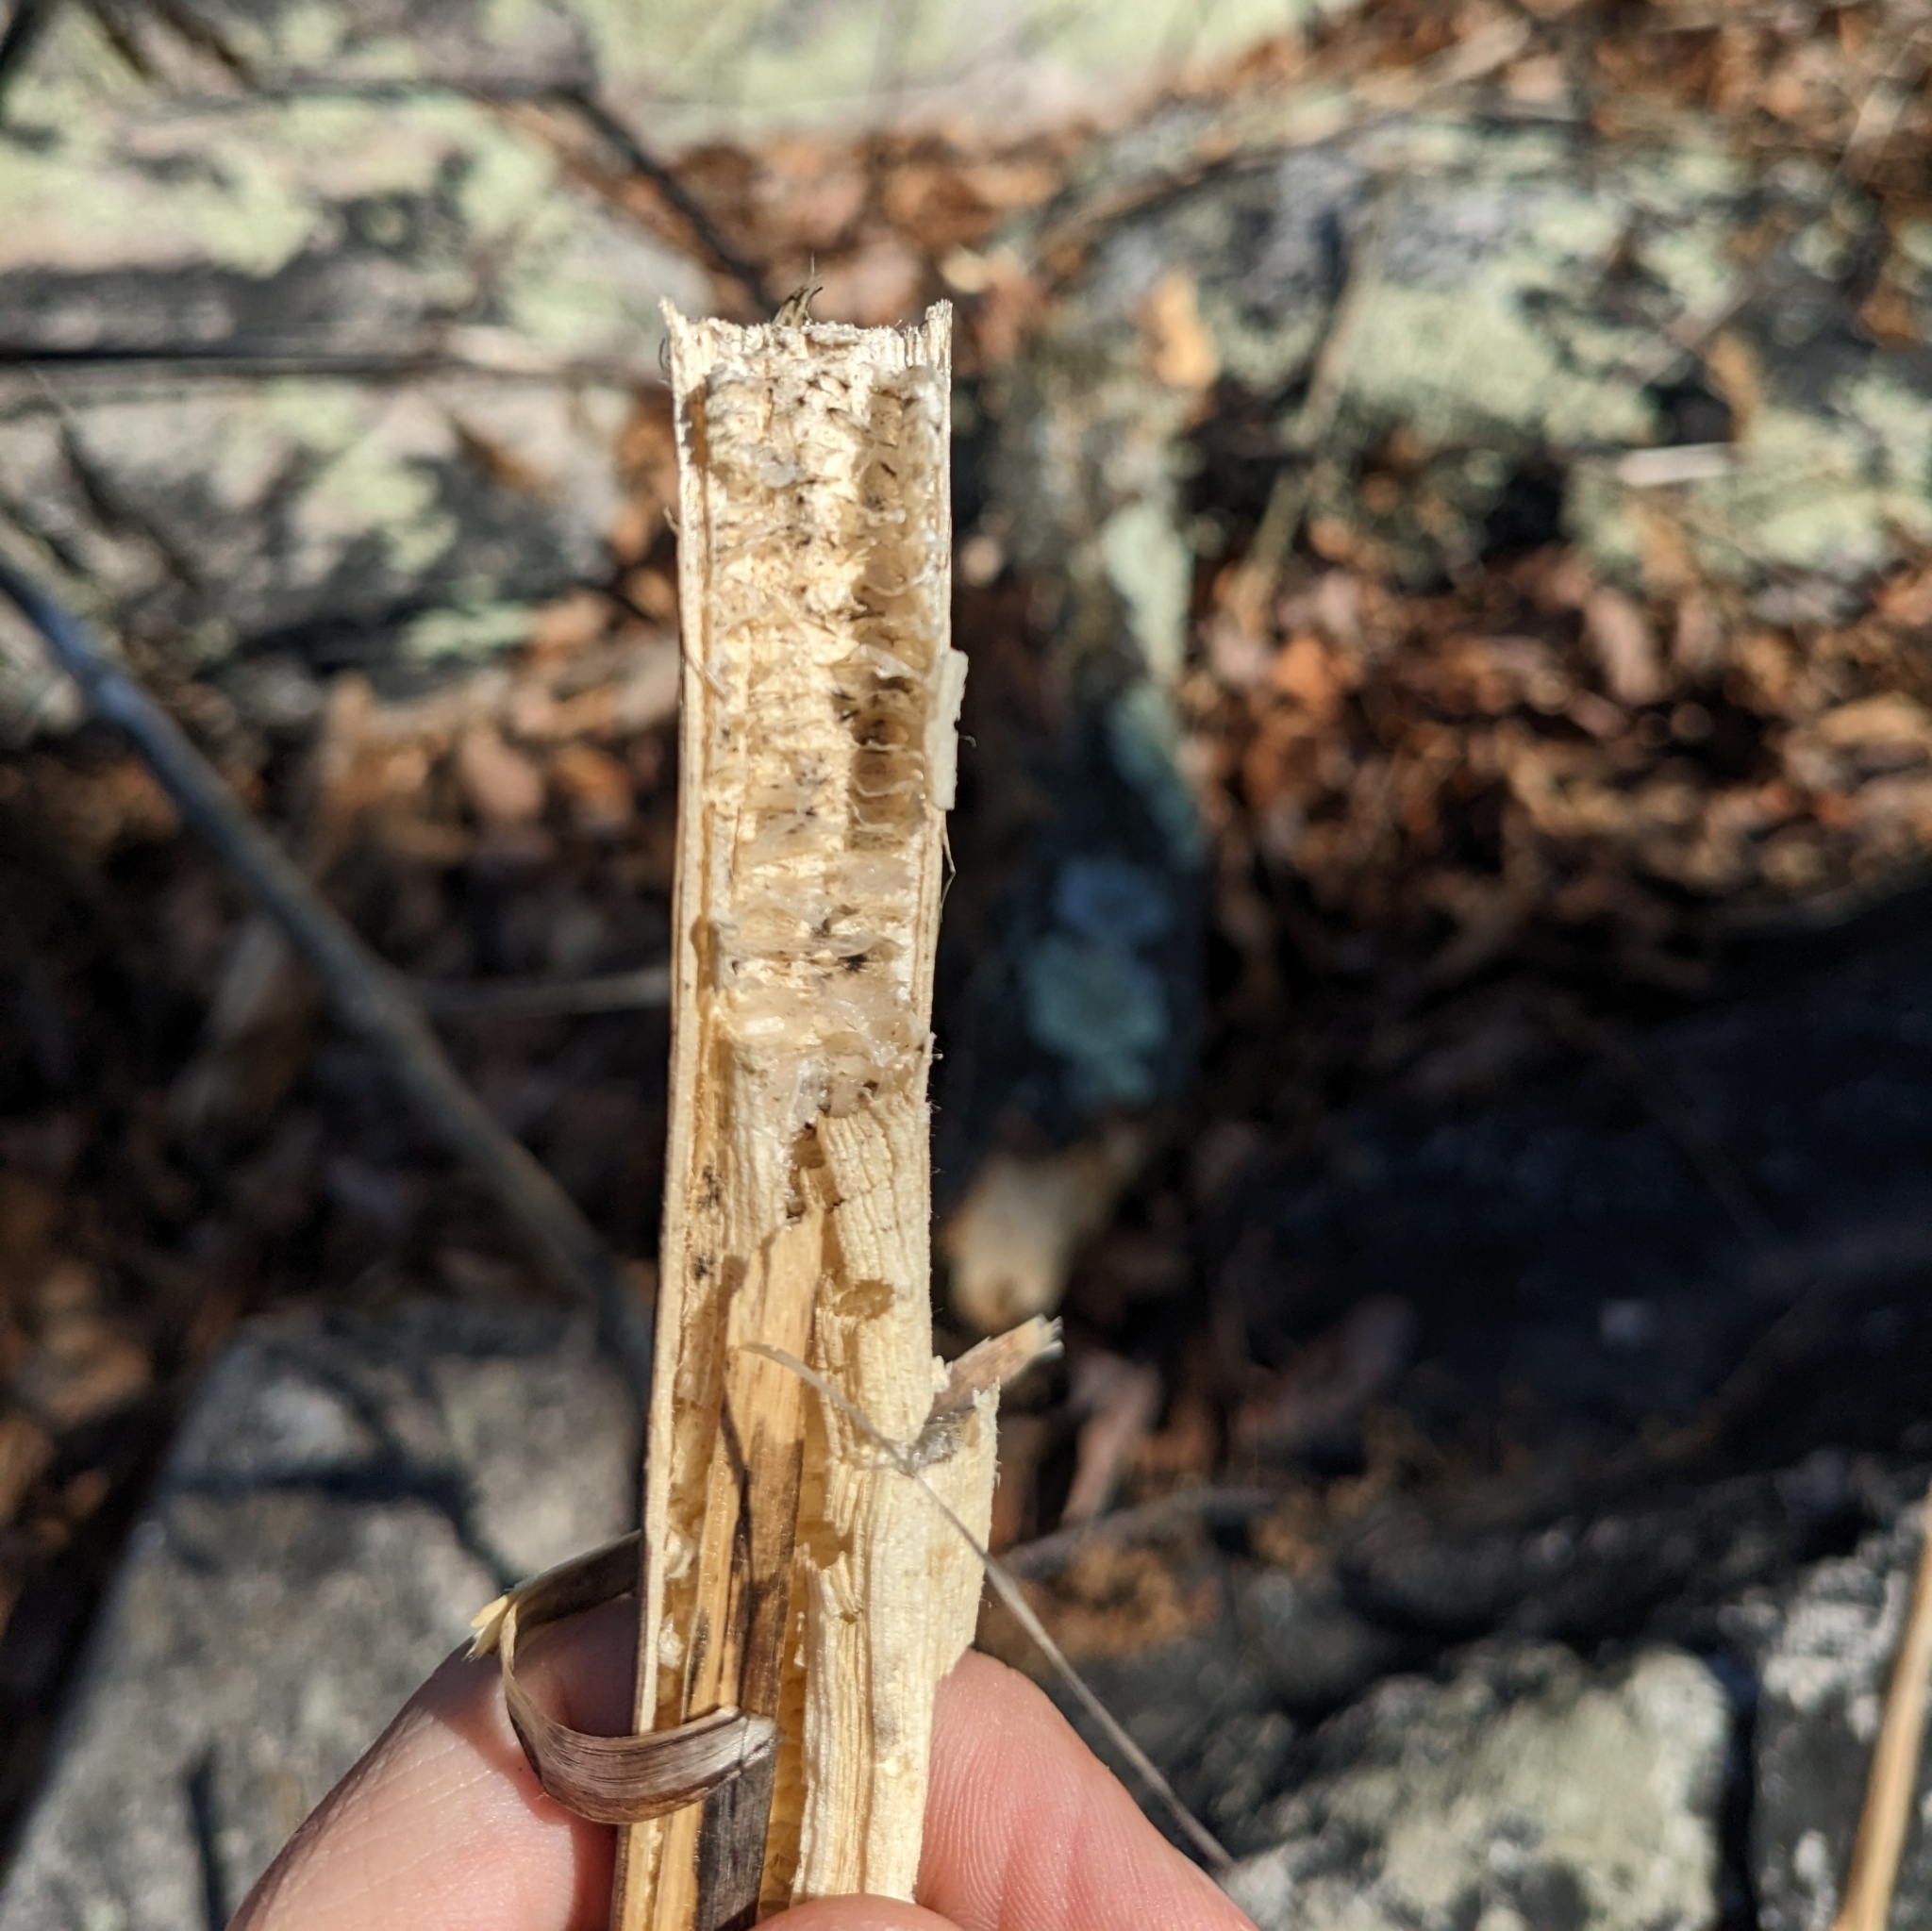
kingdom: Plantae
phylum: Tracheophyta
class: Magnoliopsida
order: Caryophyllales
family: Phytolaccaceae
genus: Phytolacca
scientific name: Phytolacca americana
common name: American pokeweed
